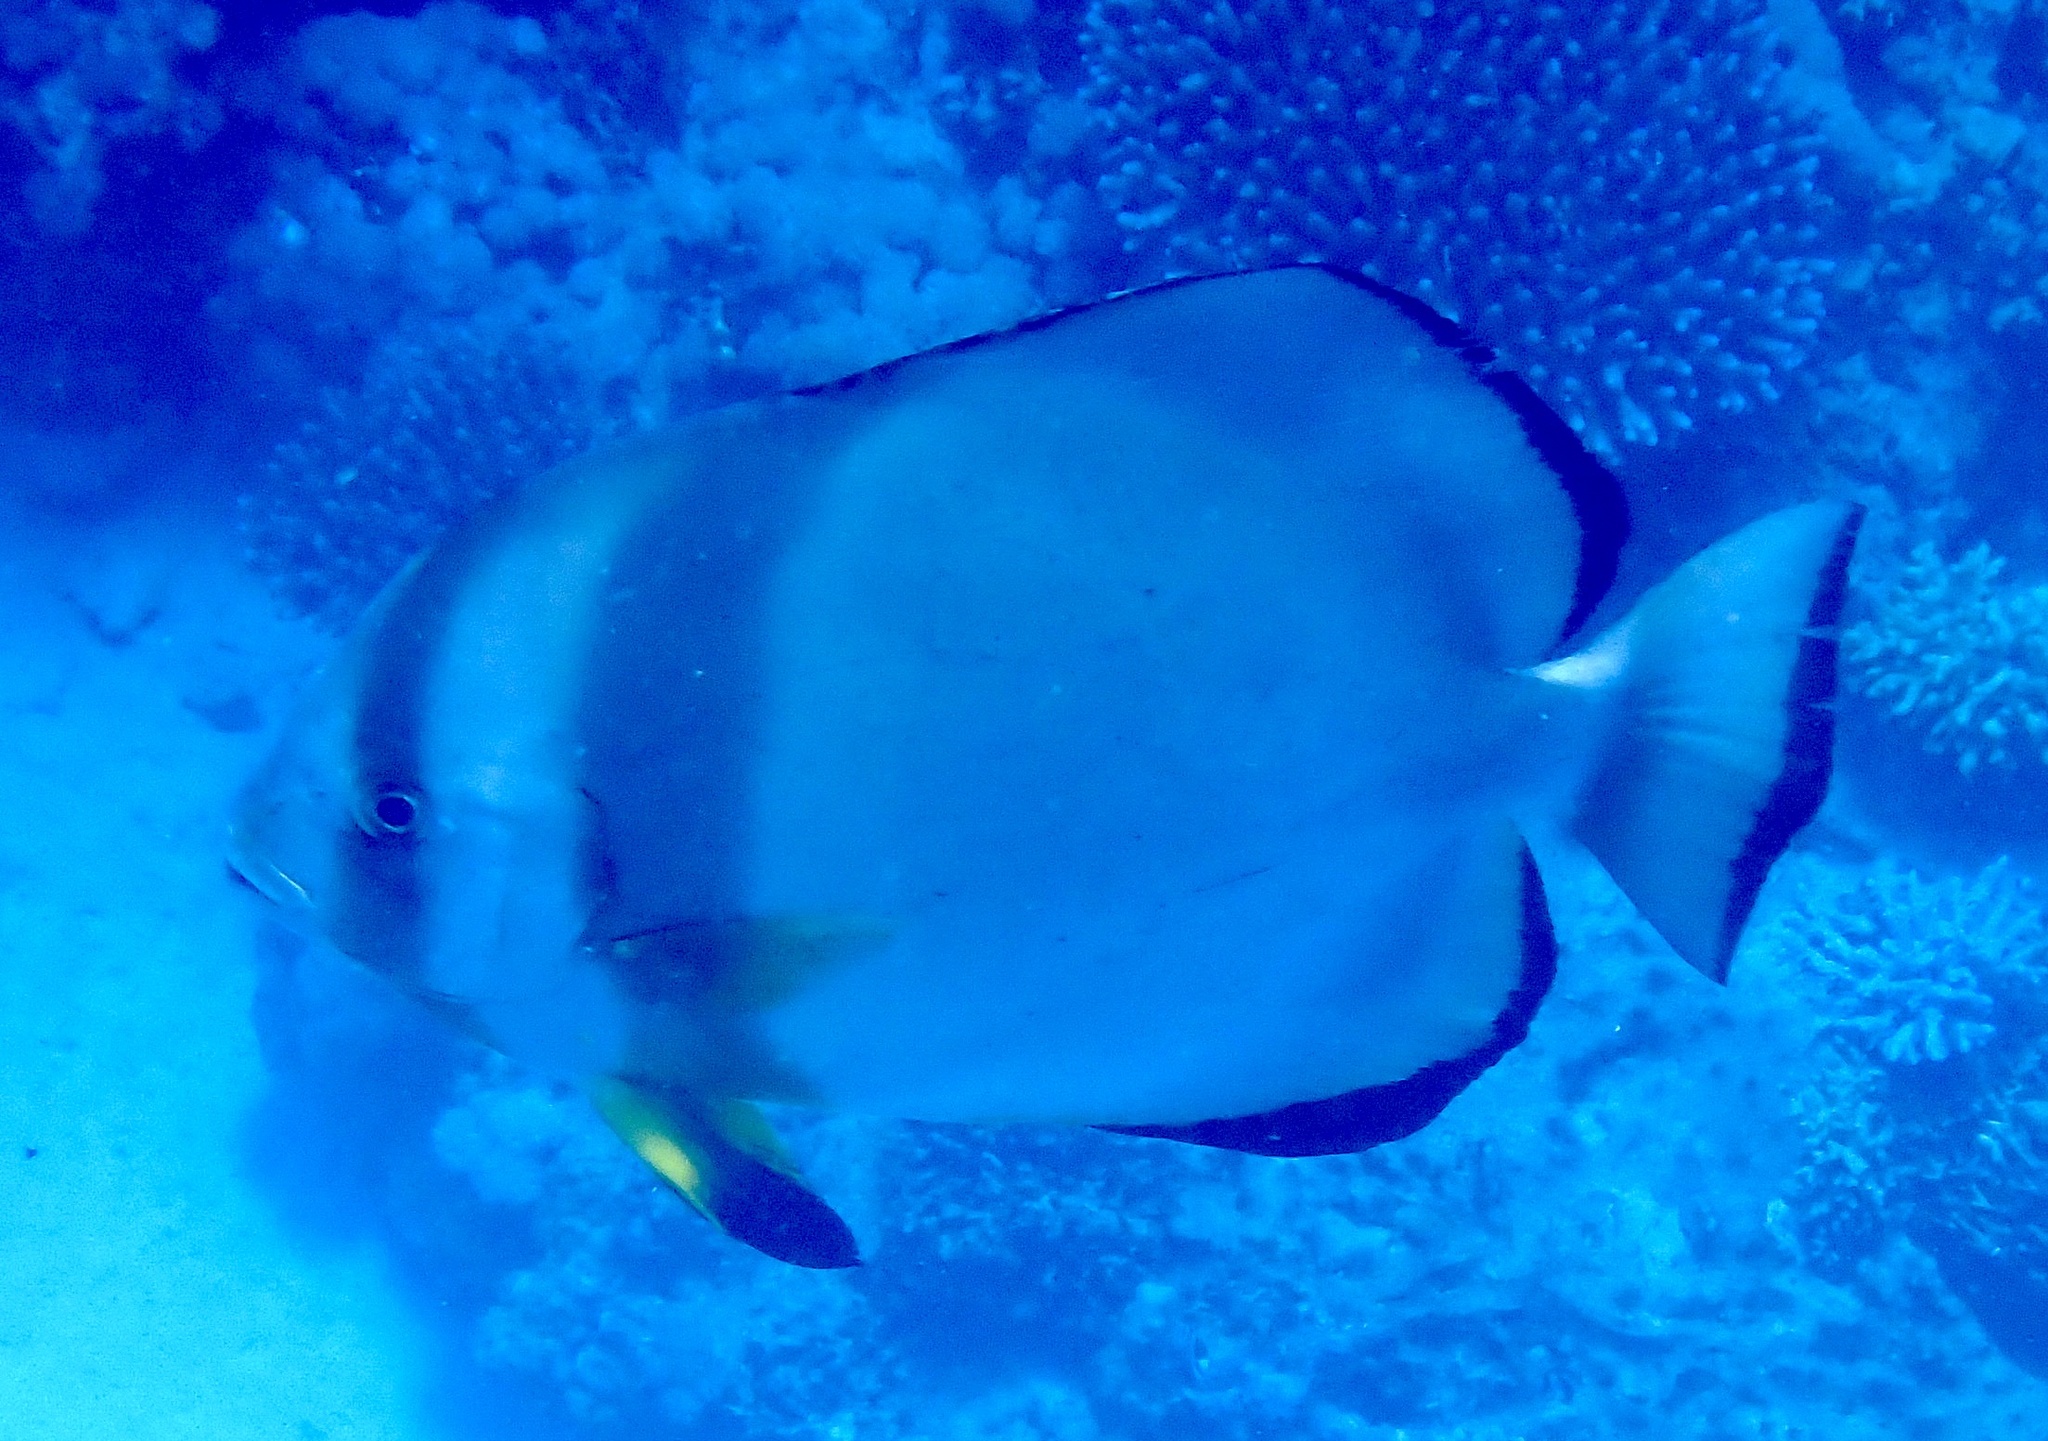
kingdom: Animalia
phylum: Chordata
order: Perciformes
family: Ephippidae
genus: Platax
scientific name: Platax orbicularis
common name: Batfish
